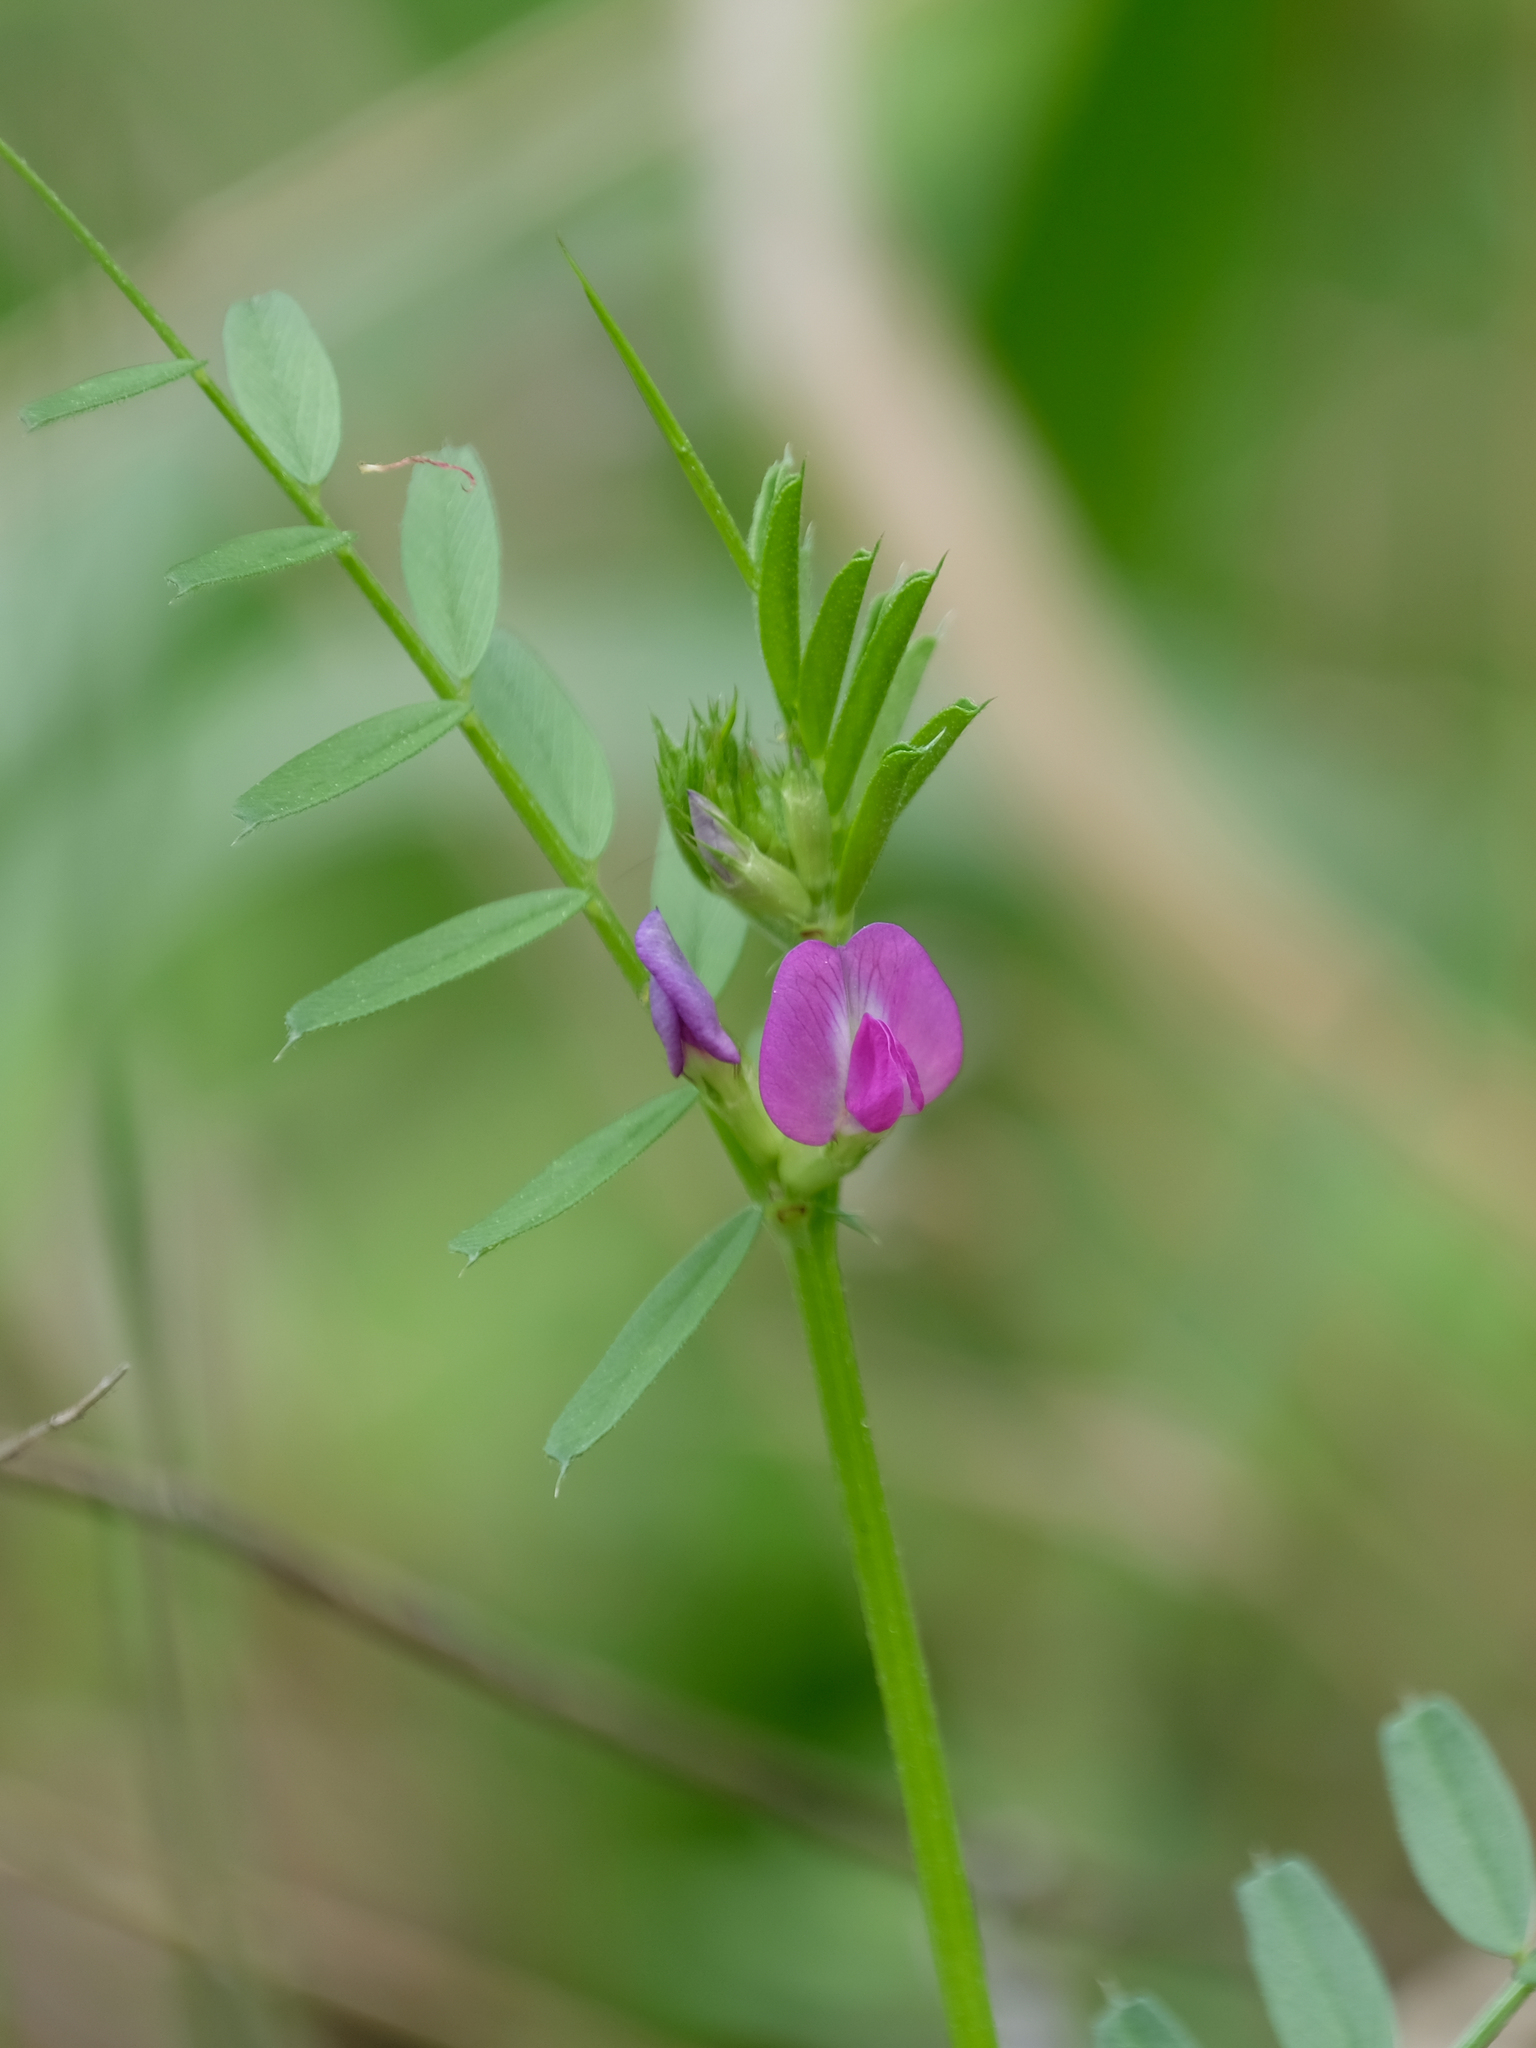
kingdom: Plantae
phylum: Tracheophyta
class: Magnoliopsida
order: Fabales
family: Fabaceae
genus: Vicia
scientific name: Vicia sativa
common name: Garden vetch
